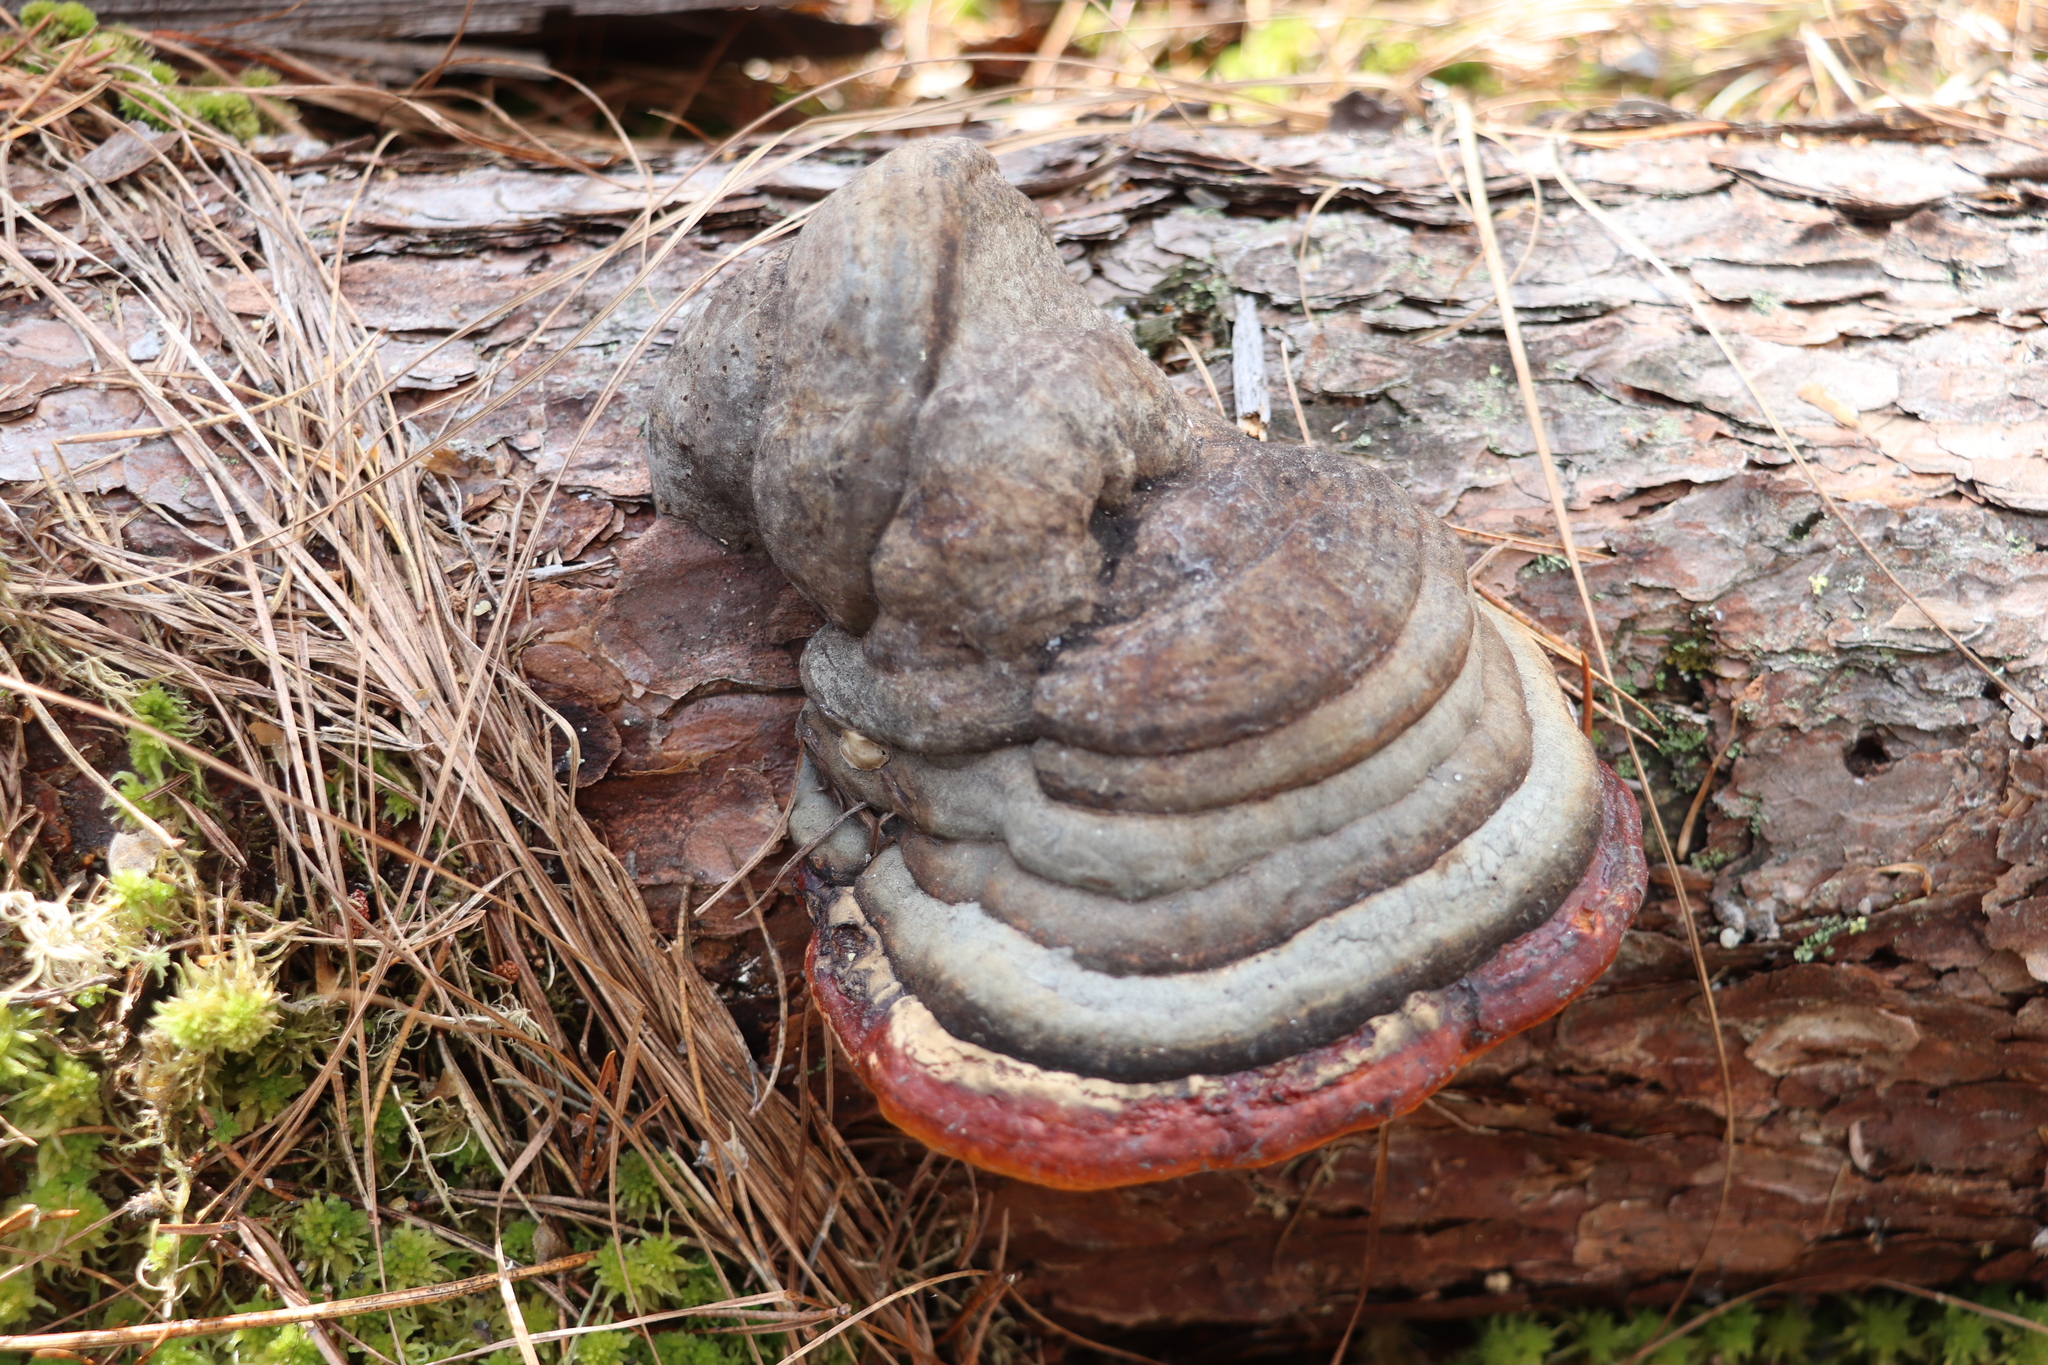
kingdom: Fungi
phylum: Basidiomycota
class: Agaricomycetes
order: Polyporales
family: Fomitopsidaceae
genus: Fomitopsis
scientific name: Fomitopsis pinicola
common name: Red-belted bracket
